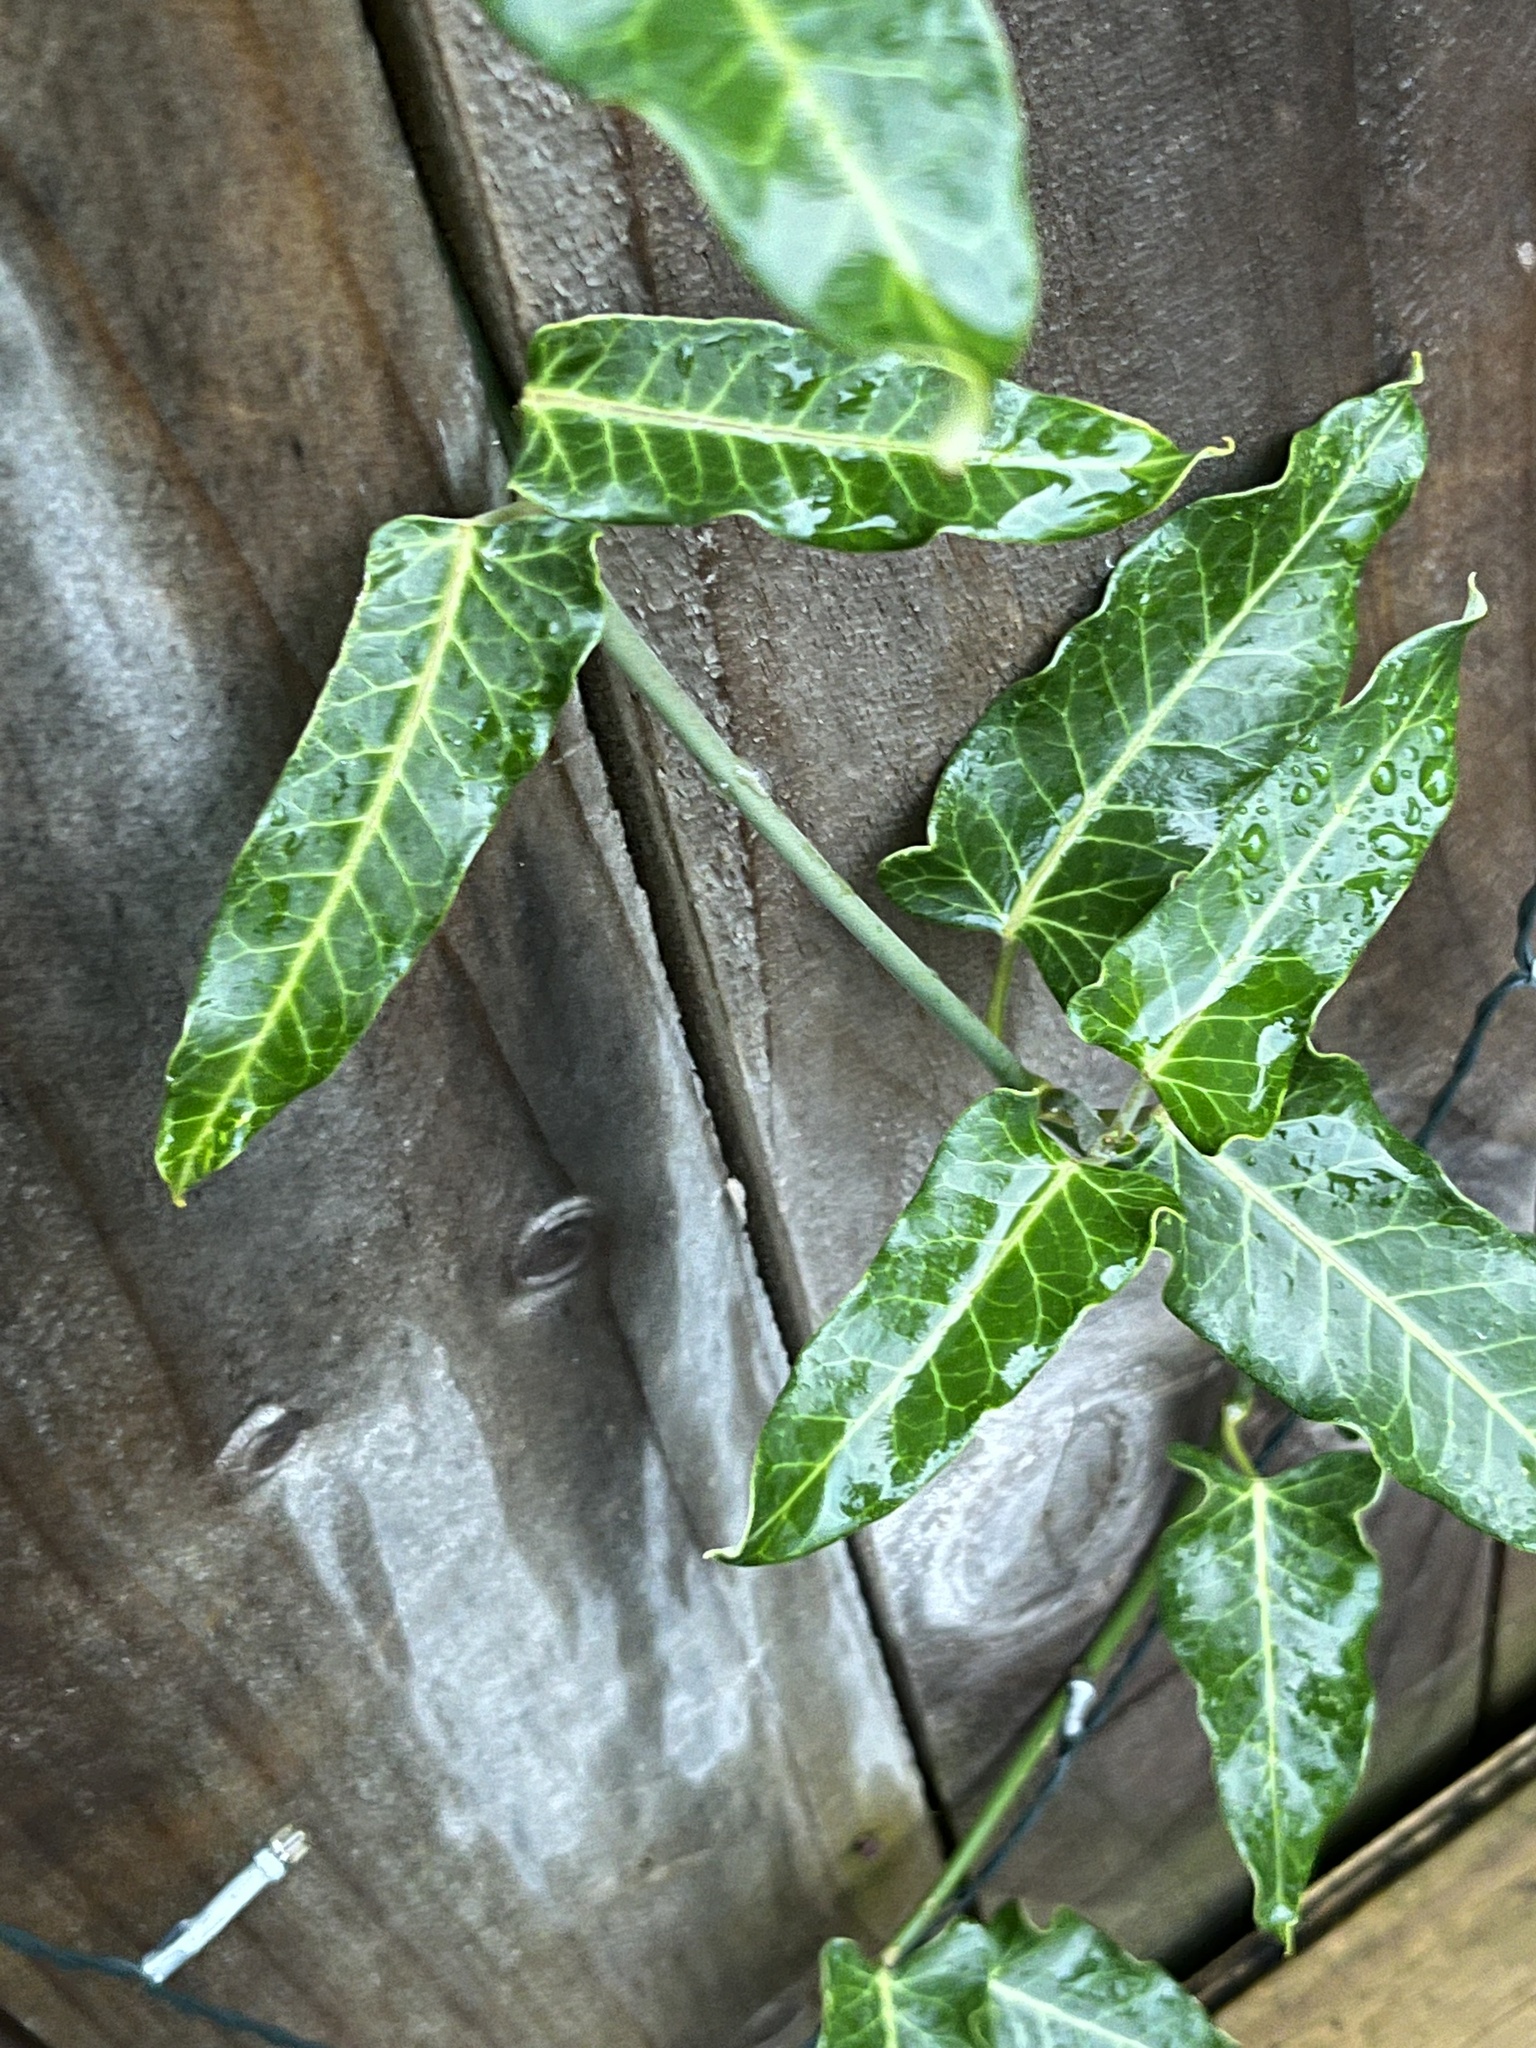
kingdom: Plantae
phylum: Tracheophyta
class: Magnoliopsida
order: Gentianales
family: Apocynaceae
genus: Araujia
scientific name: Araujia sericifera
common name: White bladderflower
